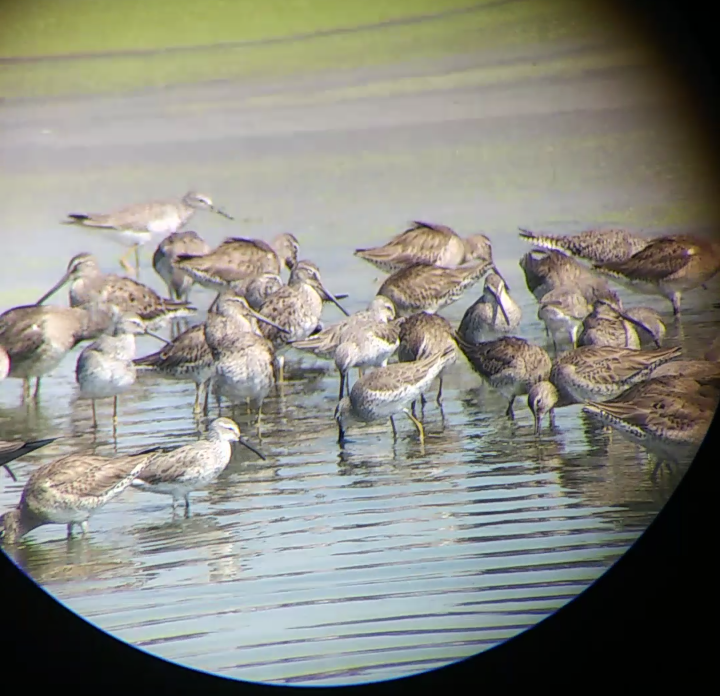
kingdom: Animalia
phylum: Chordata
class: Aves
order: Charadriiformes
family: Scolopacidae
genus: Calidris
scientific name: Calidris himantopus
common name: Stilt sandpiper
